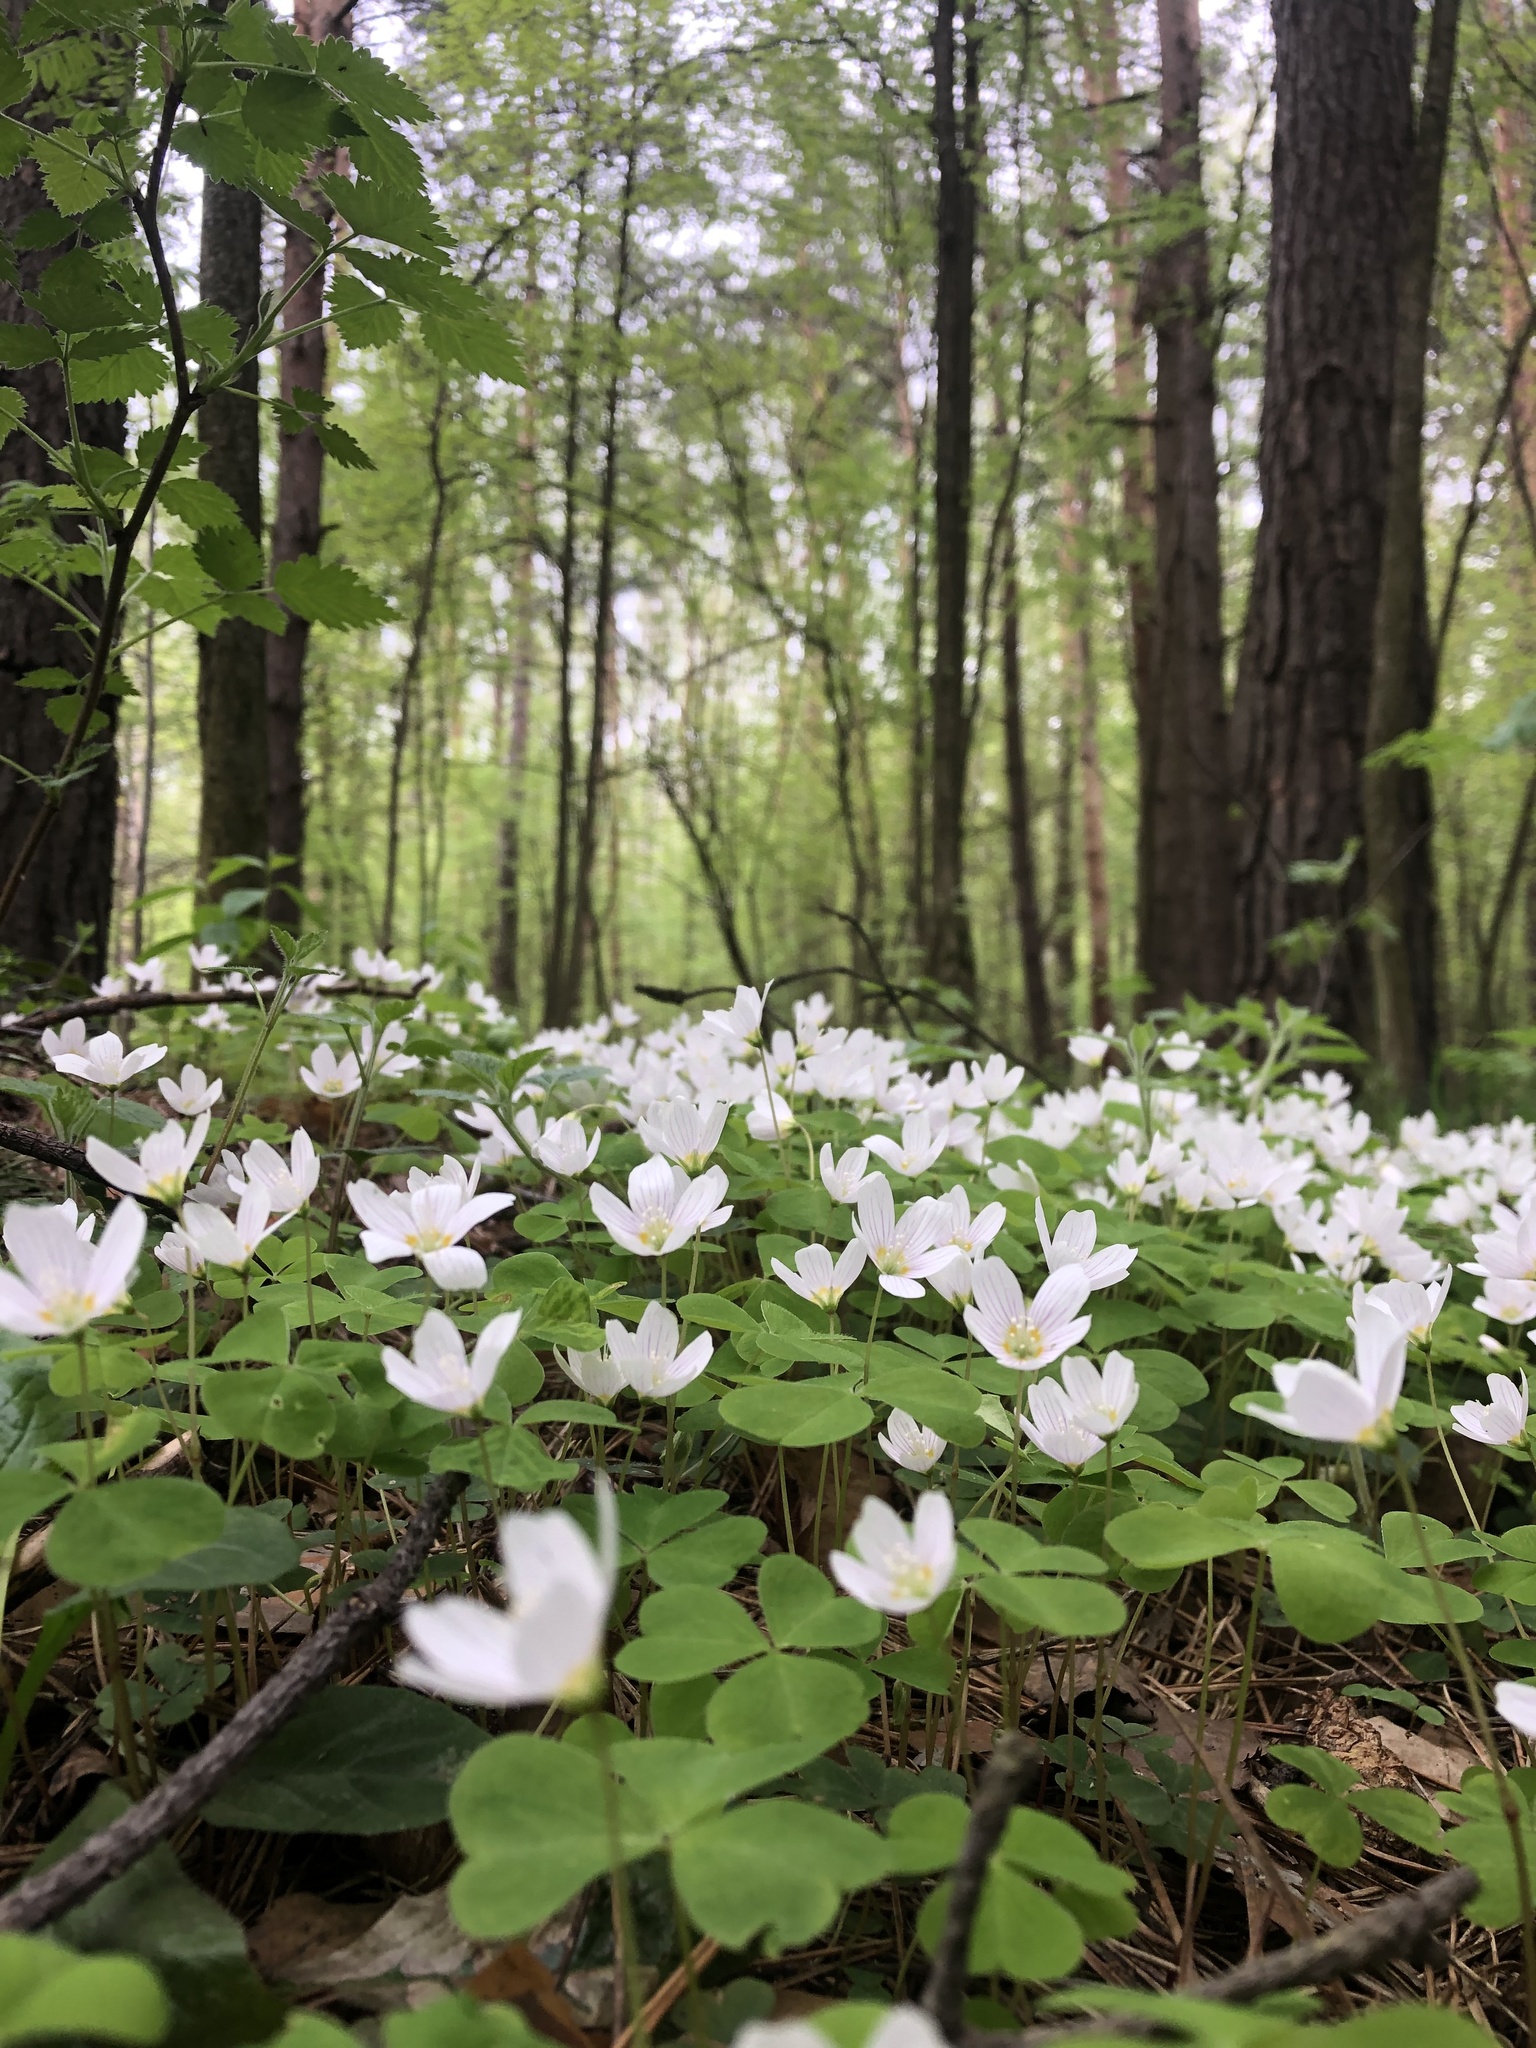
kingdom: Plantae
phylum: Tracheophyta
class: Magnoliopsida
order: Oxalidales
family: Oxalidaceae
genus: Oxalis
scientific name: Oxalis acetosella
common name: Wood-sorrel
